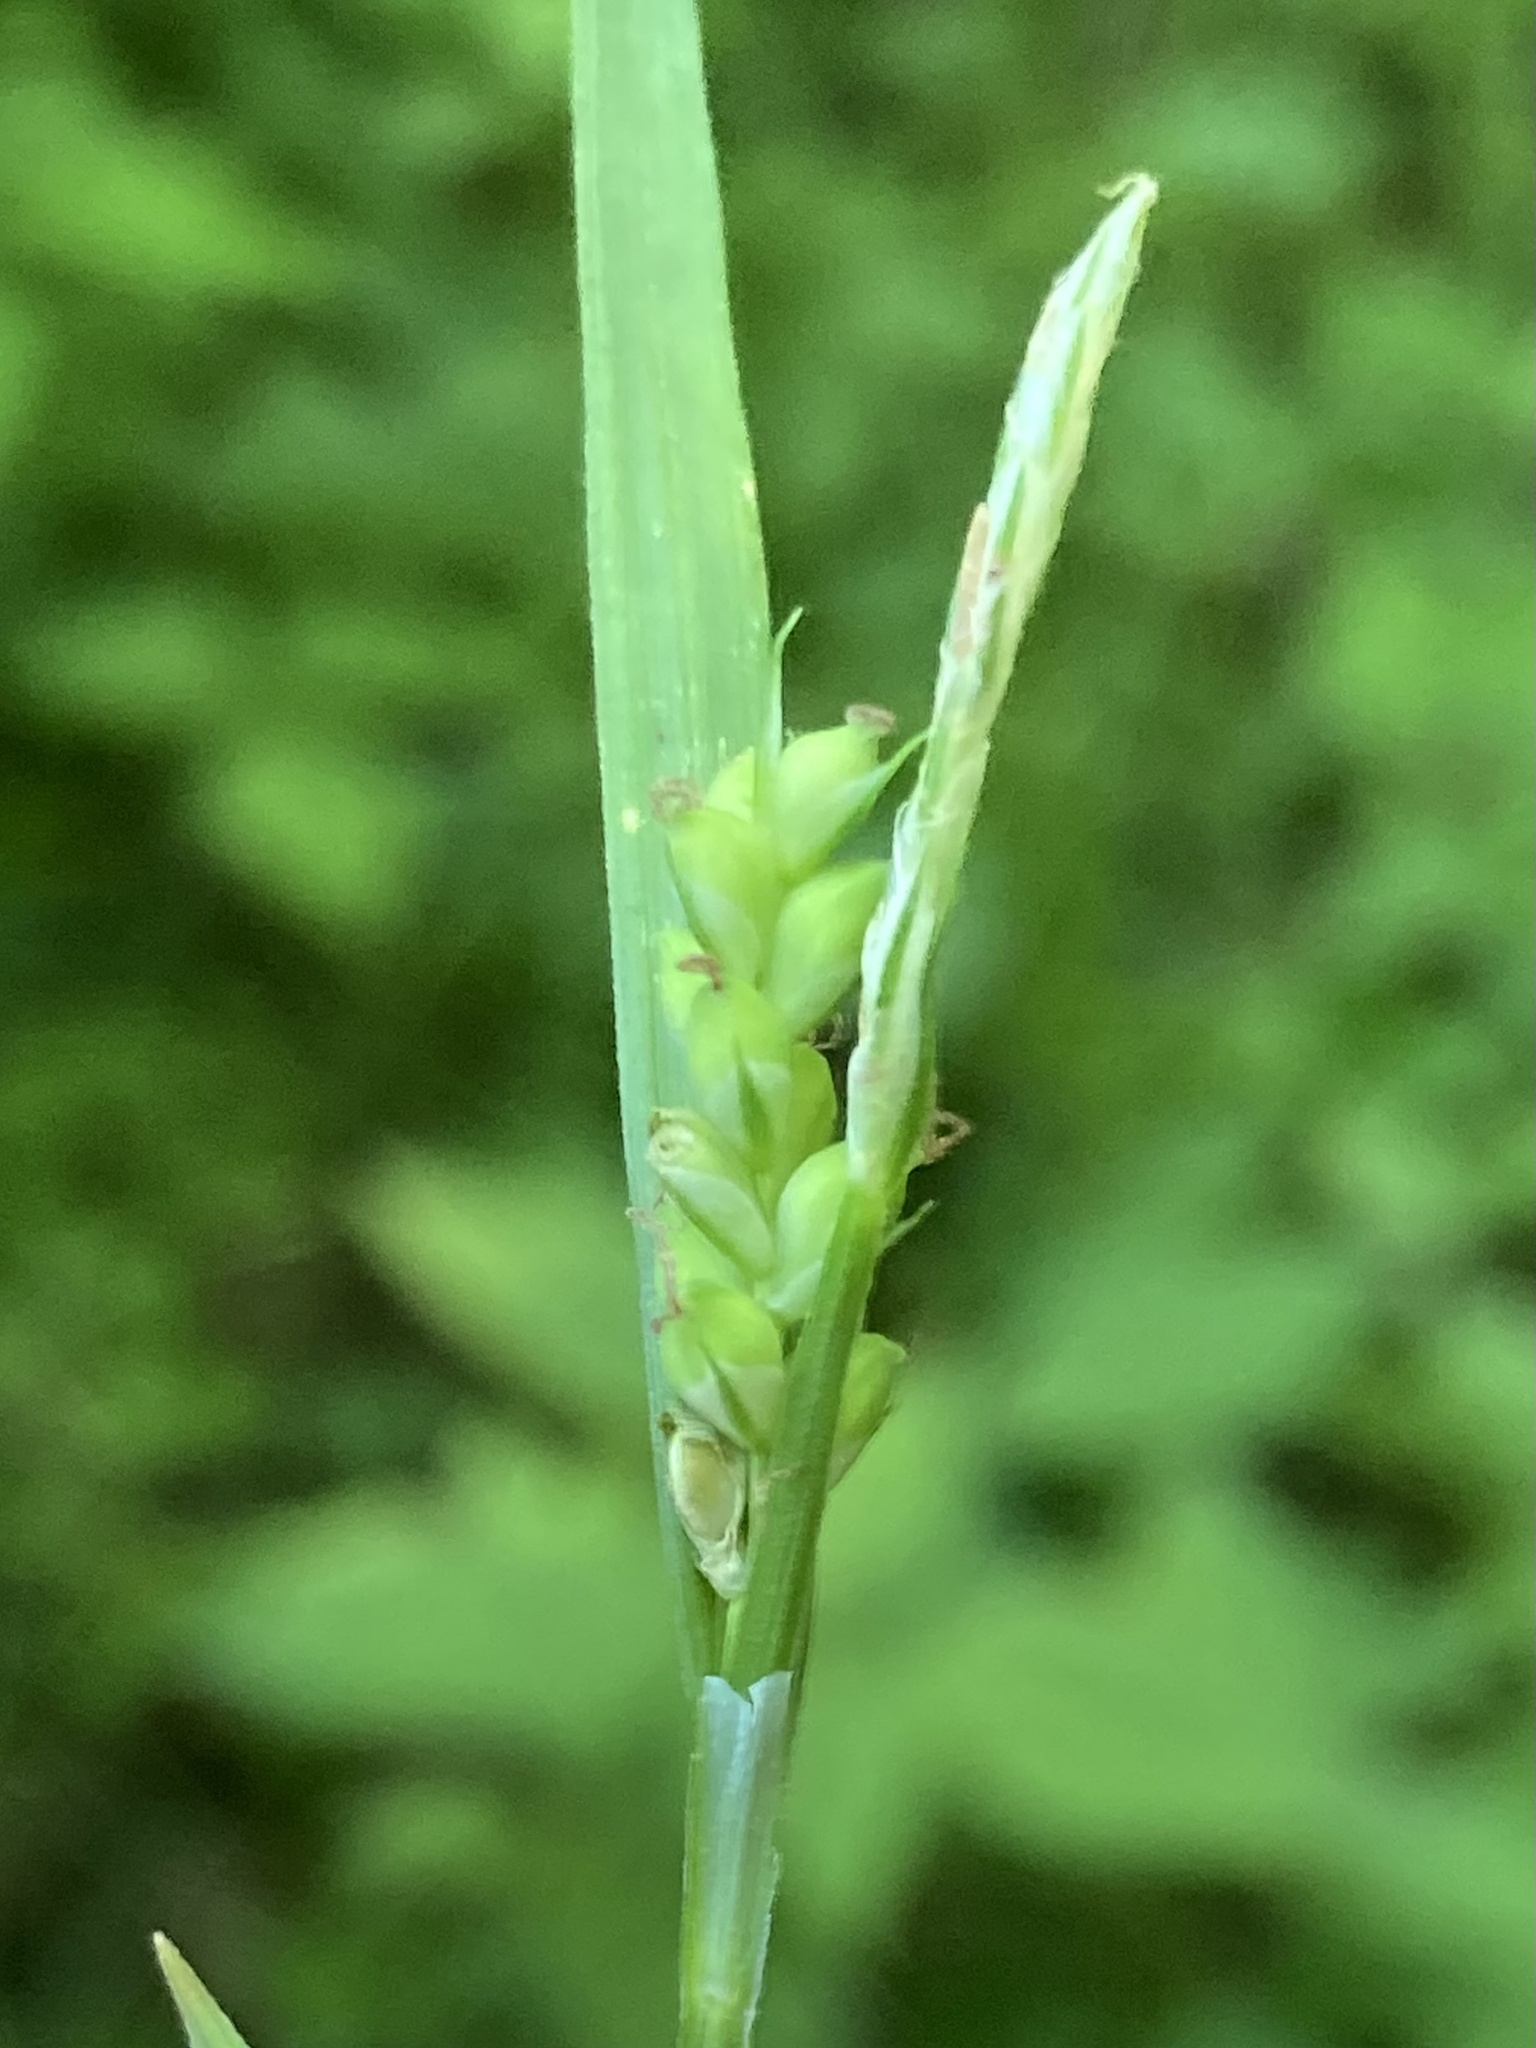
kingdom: Plantae
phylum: Tracheophyta
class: Liliopsida
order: Poales
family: Cyperaceae
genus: Carex
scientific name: Carex blanda
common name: Bland sedge
